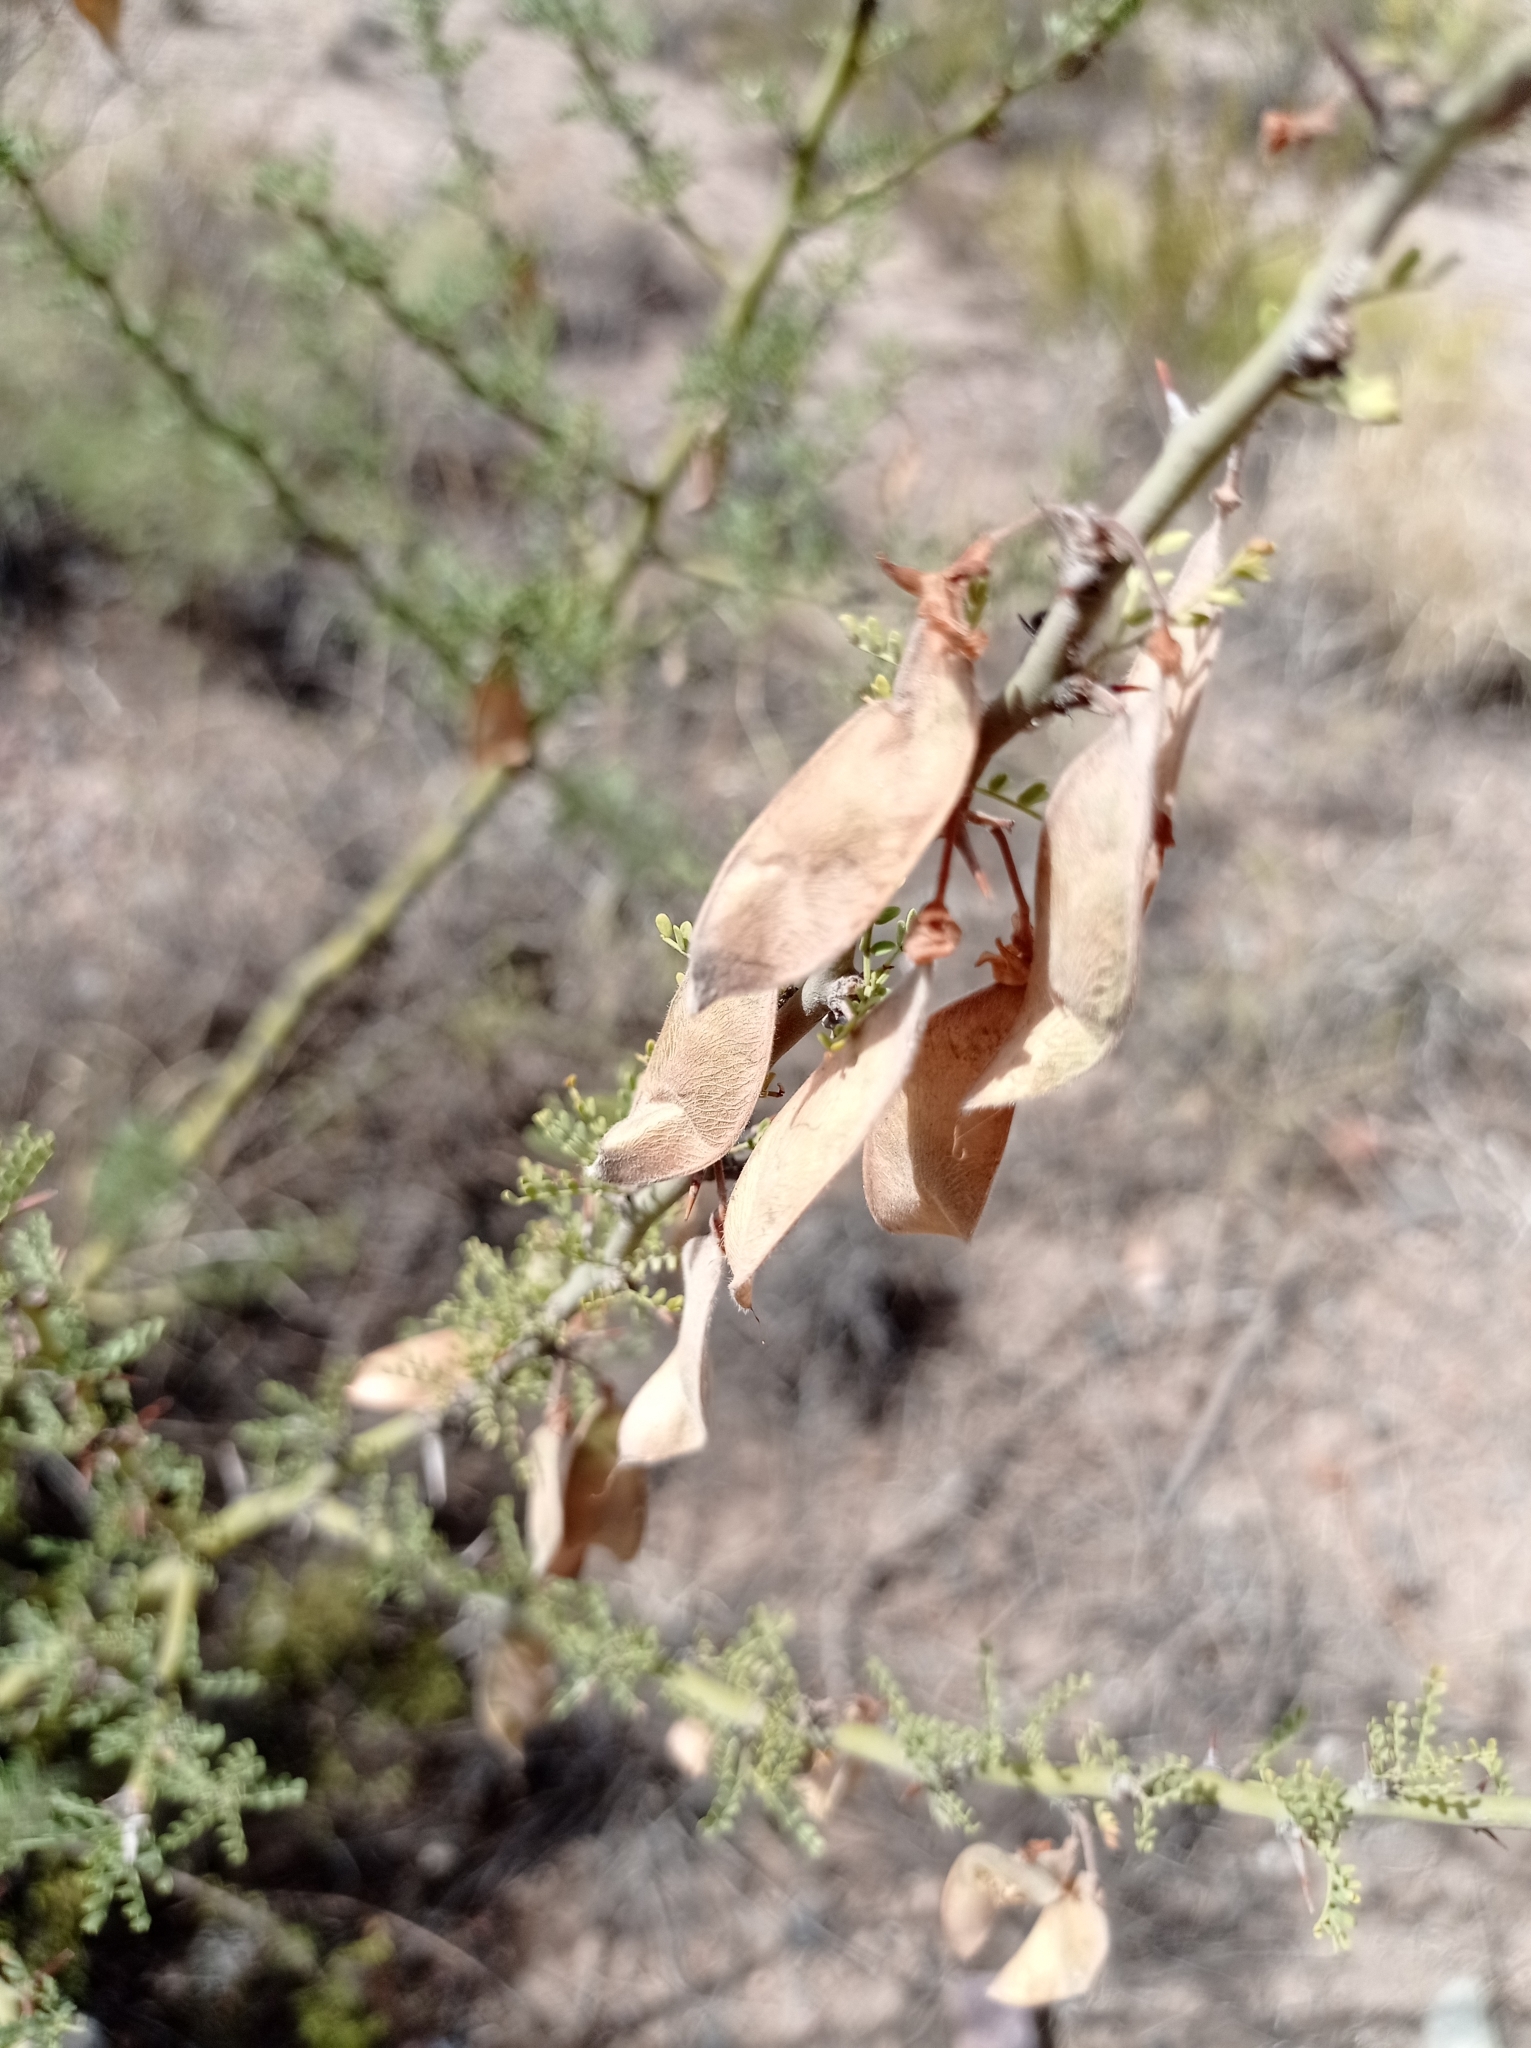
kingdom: Plantae
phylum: Tracheophyta
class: Magnoliopsida
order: Fabales
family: Fabaceae
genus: Parkinsonia
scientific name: Parkinsonia praecox
